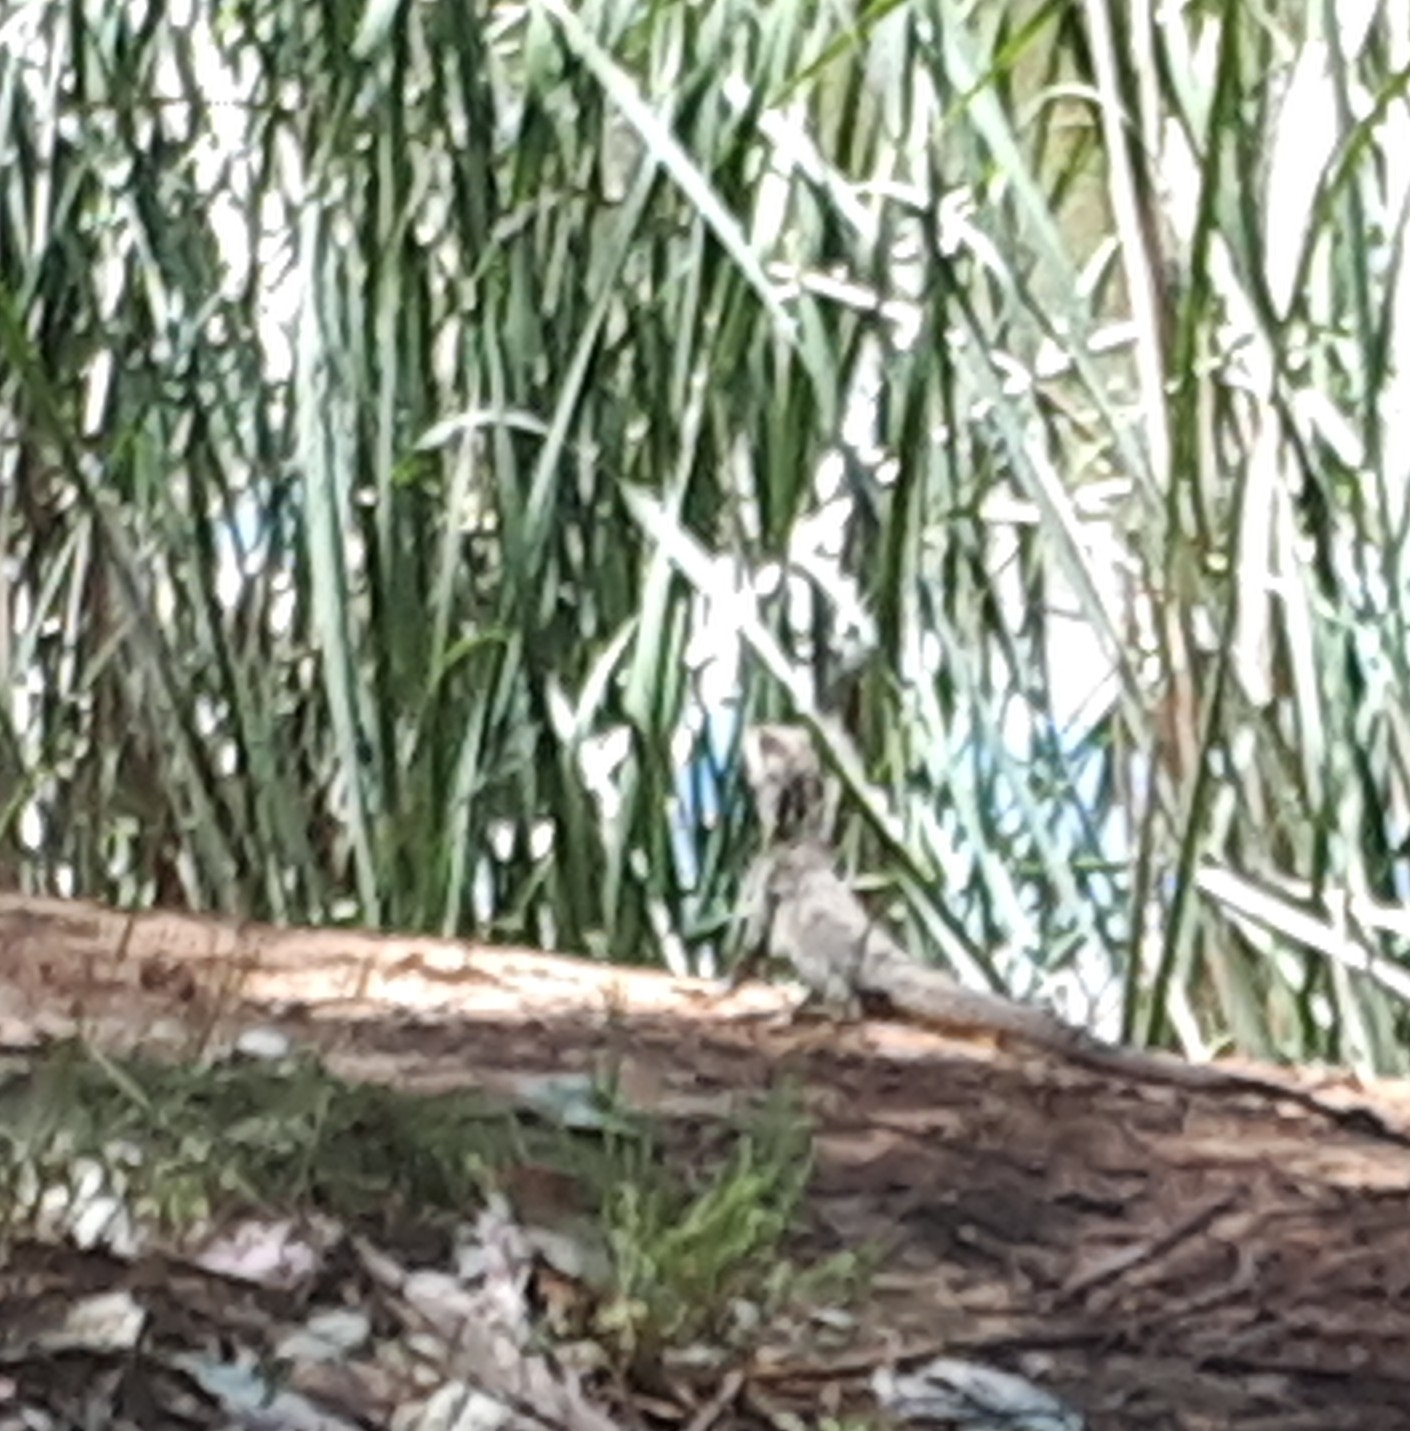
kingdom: Animalia
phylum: Chordata
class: Squamata
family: Agamidae
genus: Intellagama
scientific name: Intellagama lesueurii
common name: Eastern water dragon
